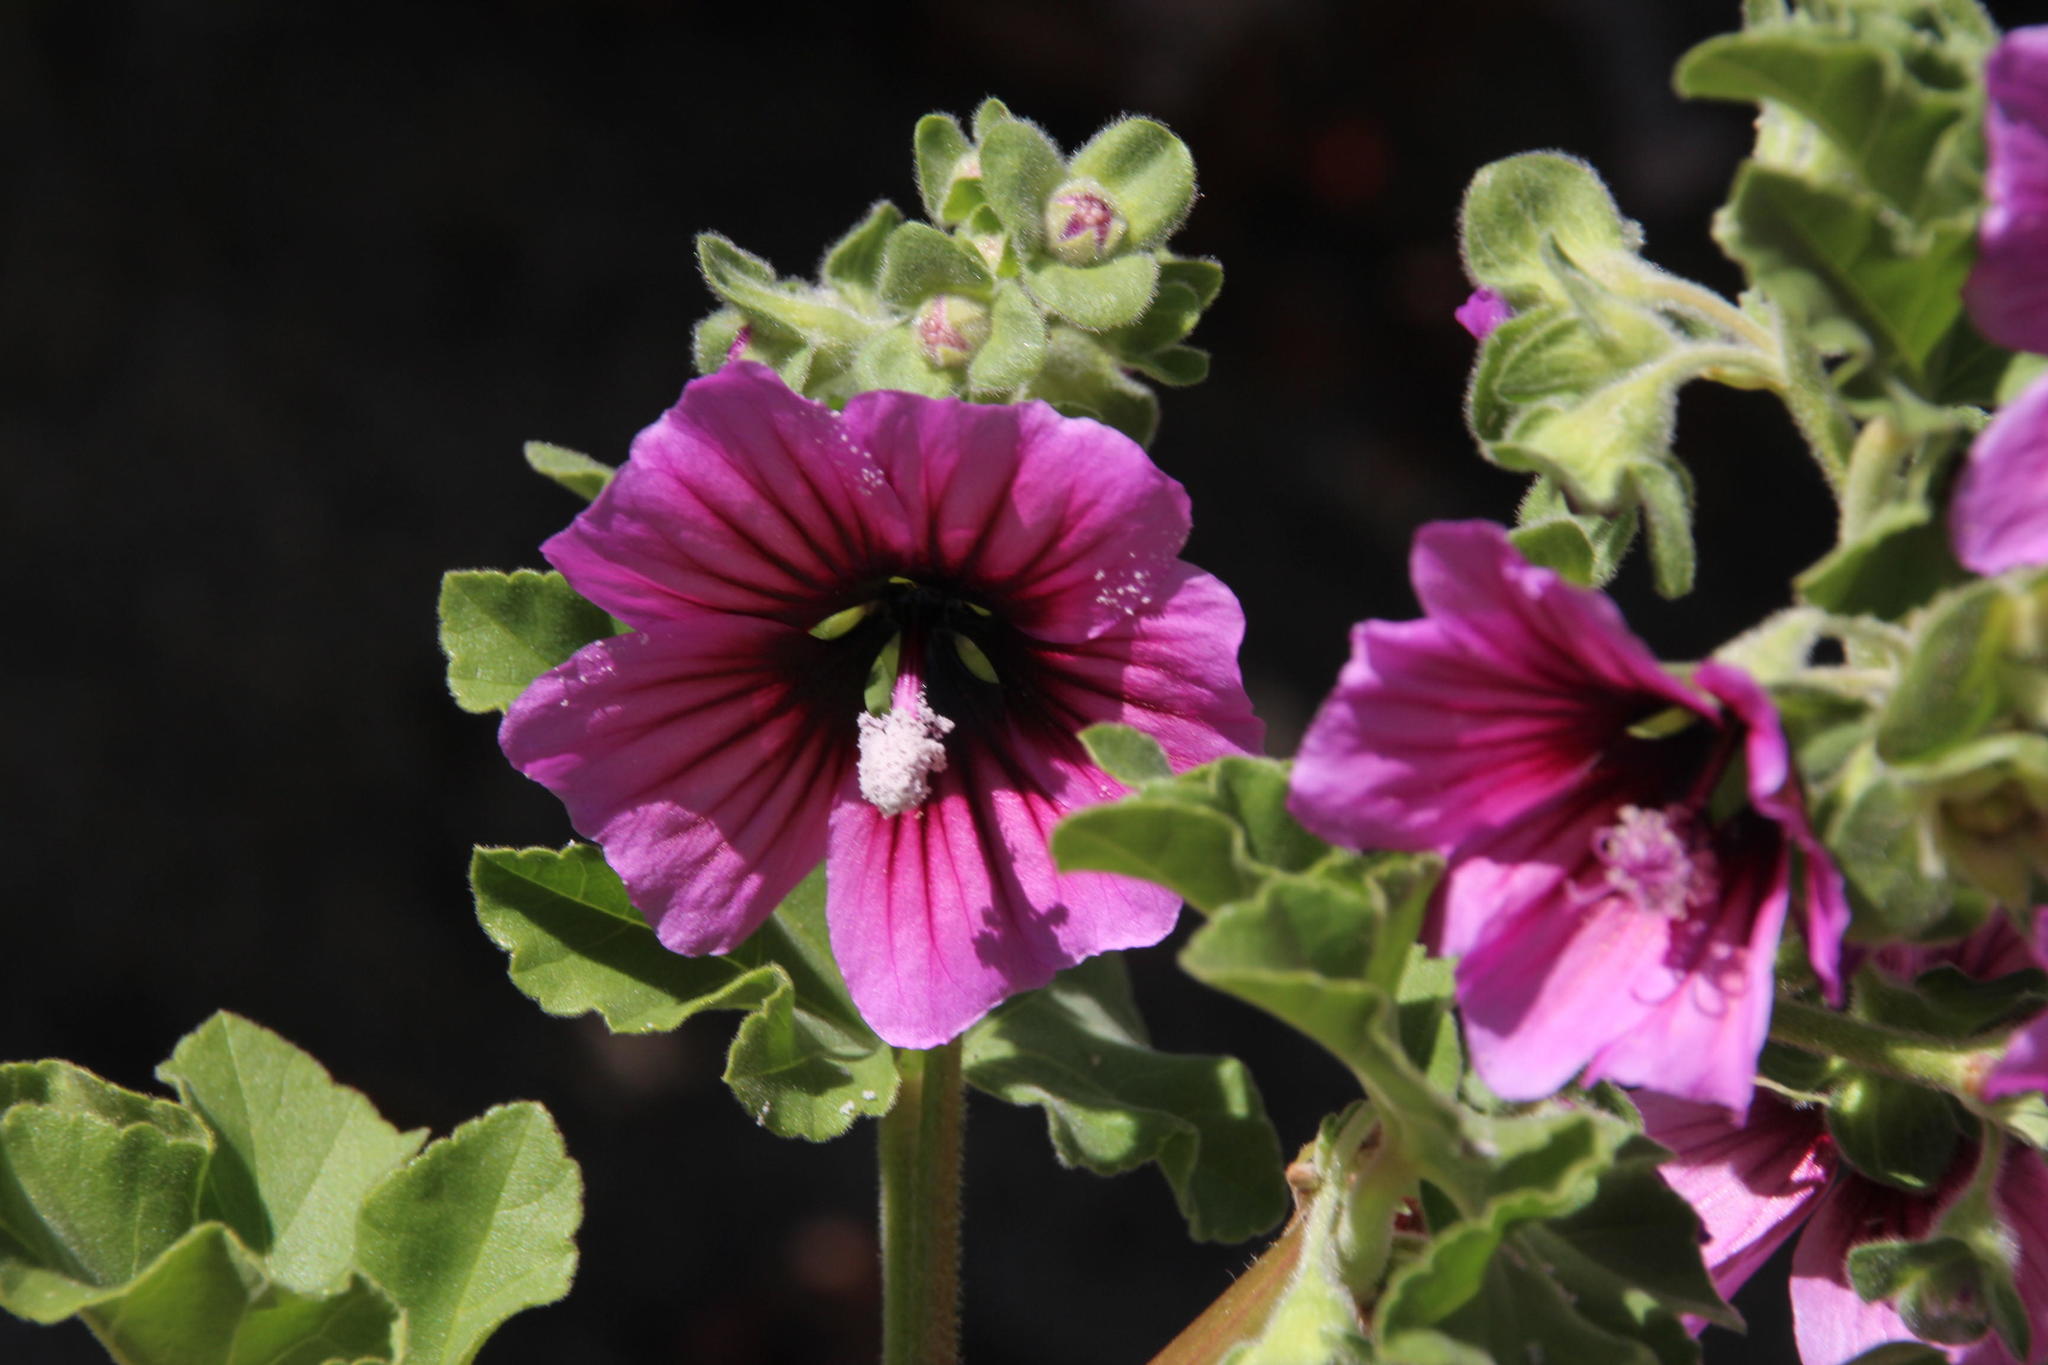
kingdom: Plantae
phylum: Tracheophyta
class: Magnoliopsida
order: Malvales
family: Malvaceae
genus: Malva
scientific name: Malva arborea
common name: Tree mallow
